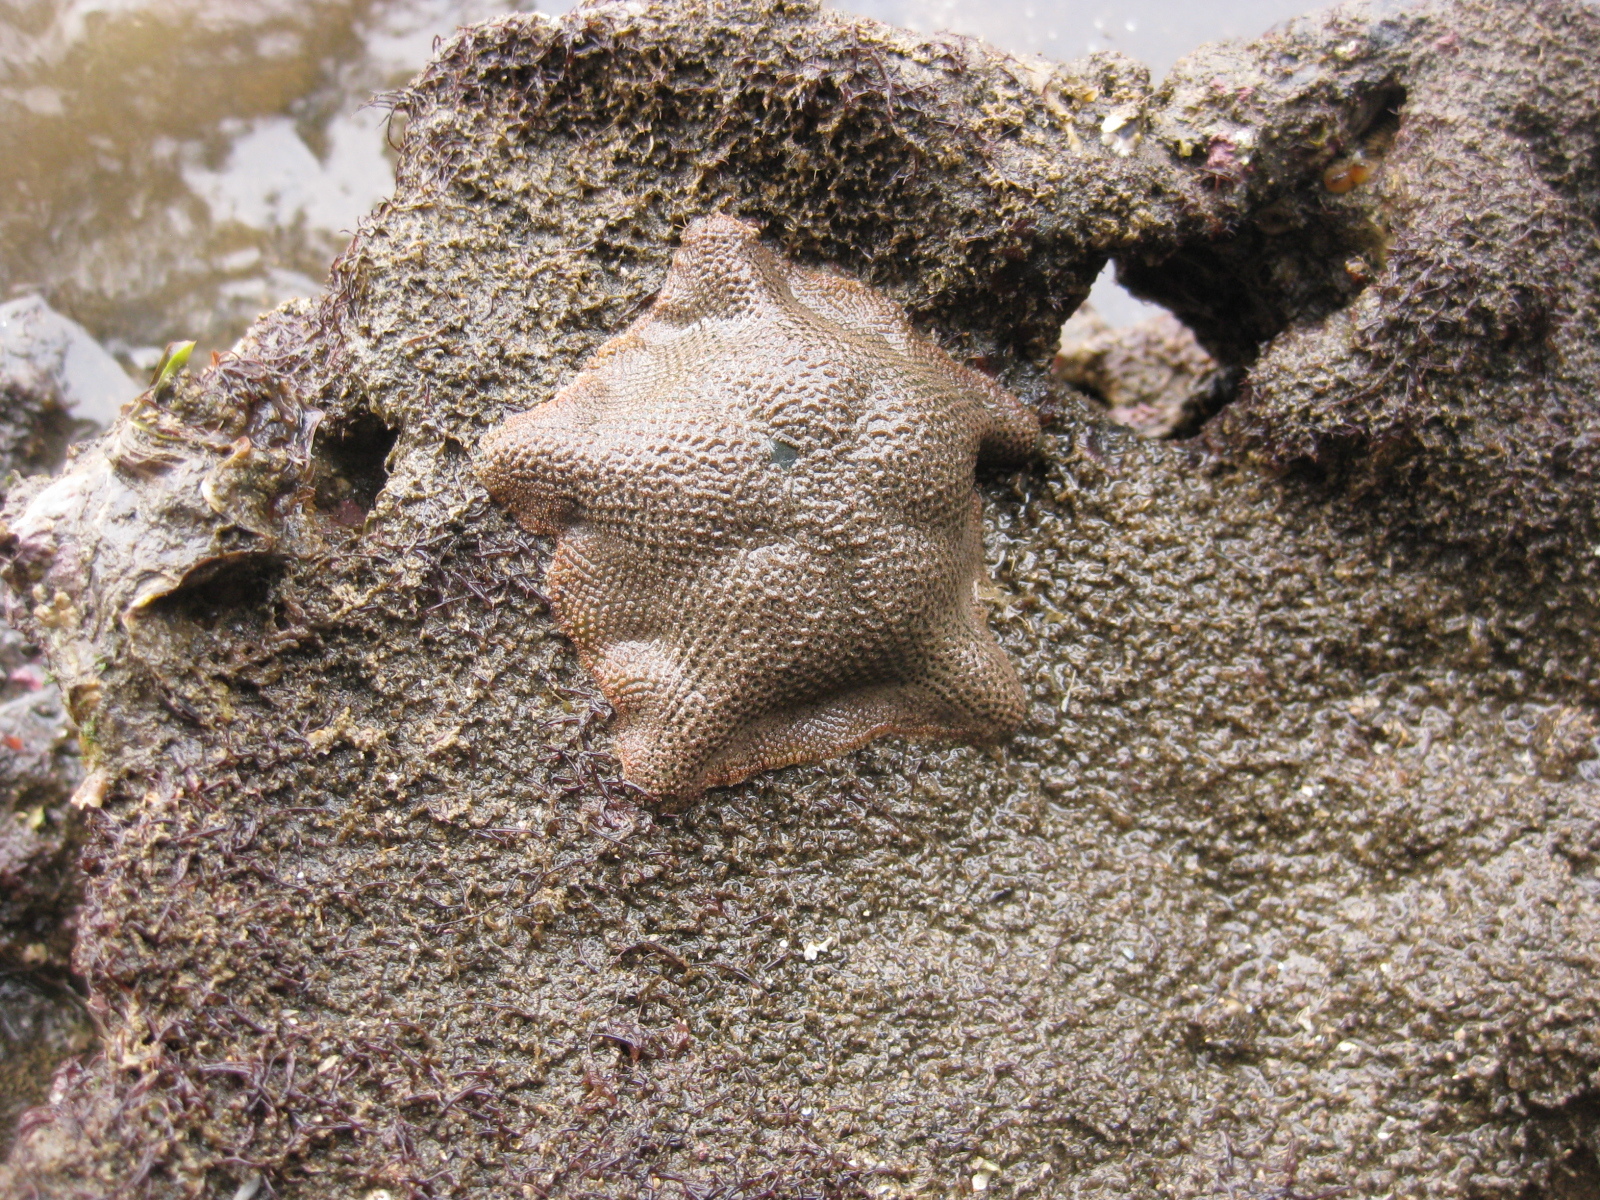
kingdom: Animalia
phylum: Echinodermata
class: Asteroidea
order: Valvatida
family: Asterinidae
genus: Patiriella
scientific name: Patiriella regularis
